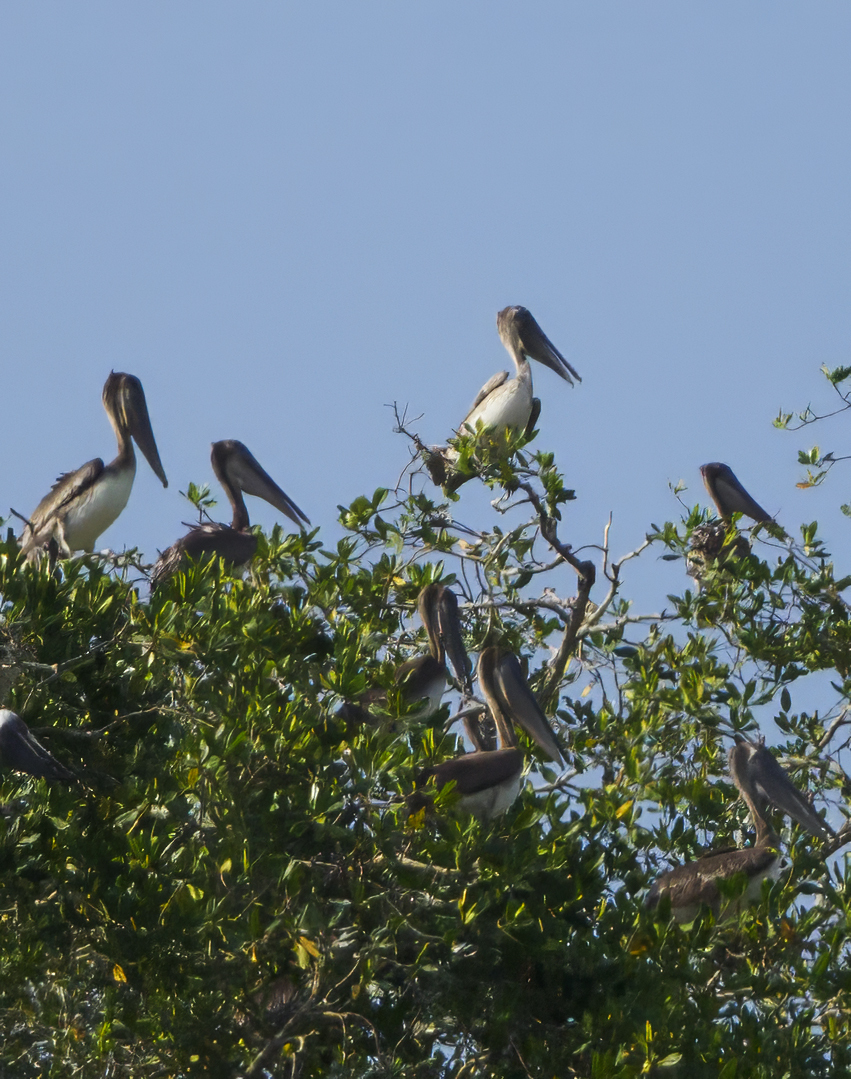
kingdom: Animalia
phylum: Chordata
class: Aves
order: Pelecaniformes
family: Pelecanidae
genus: Pelecanus
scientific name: Pelecanus occidentalis
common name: Brown pelican
